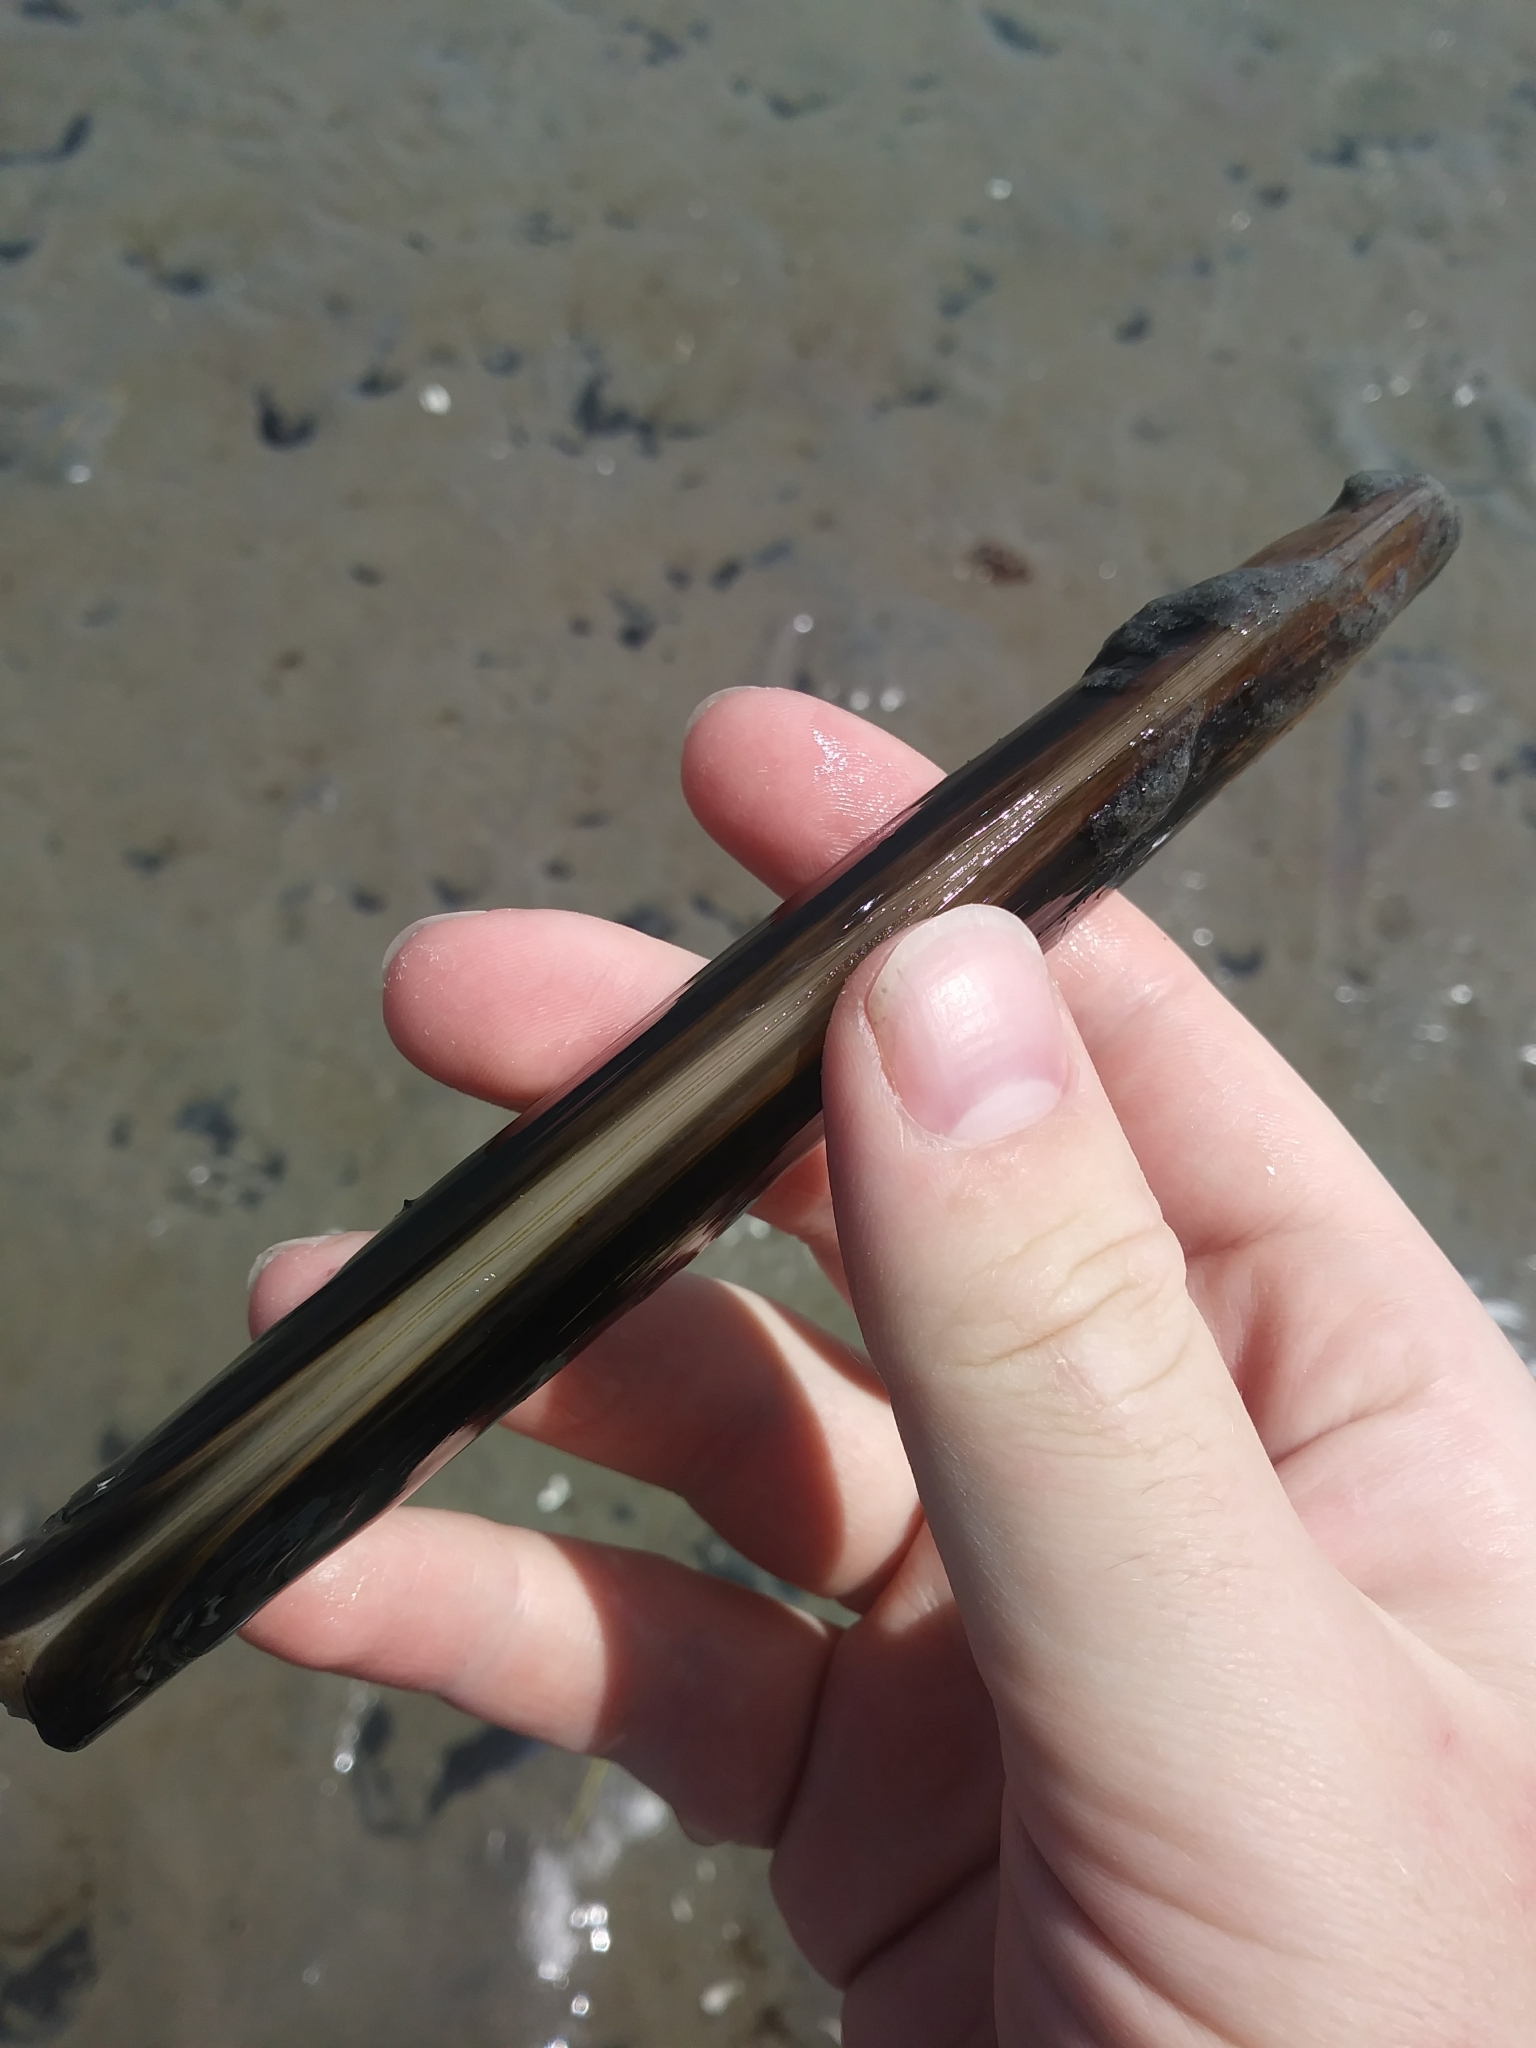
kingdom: Animalia
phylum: Mollusca
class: Bivalvia
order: Adapedonta
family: Pharidae
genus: Ensis
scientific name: Ensis leei
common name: American jack knife clam
